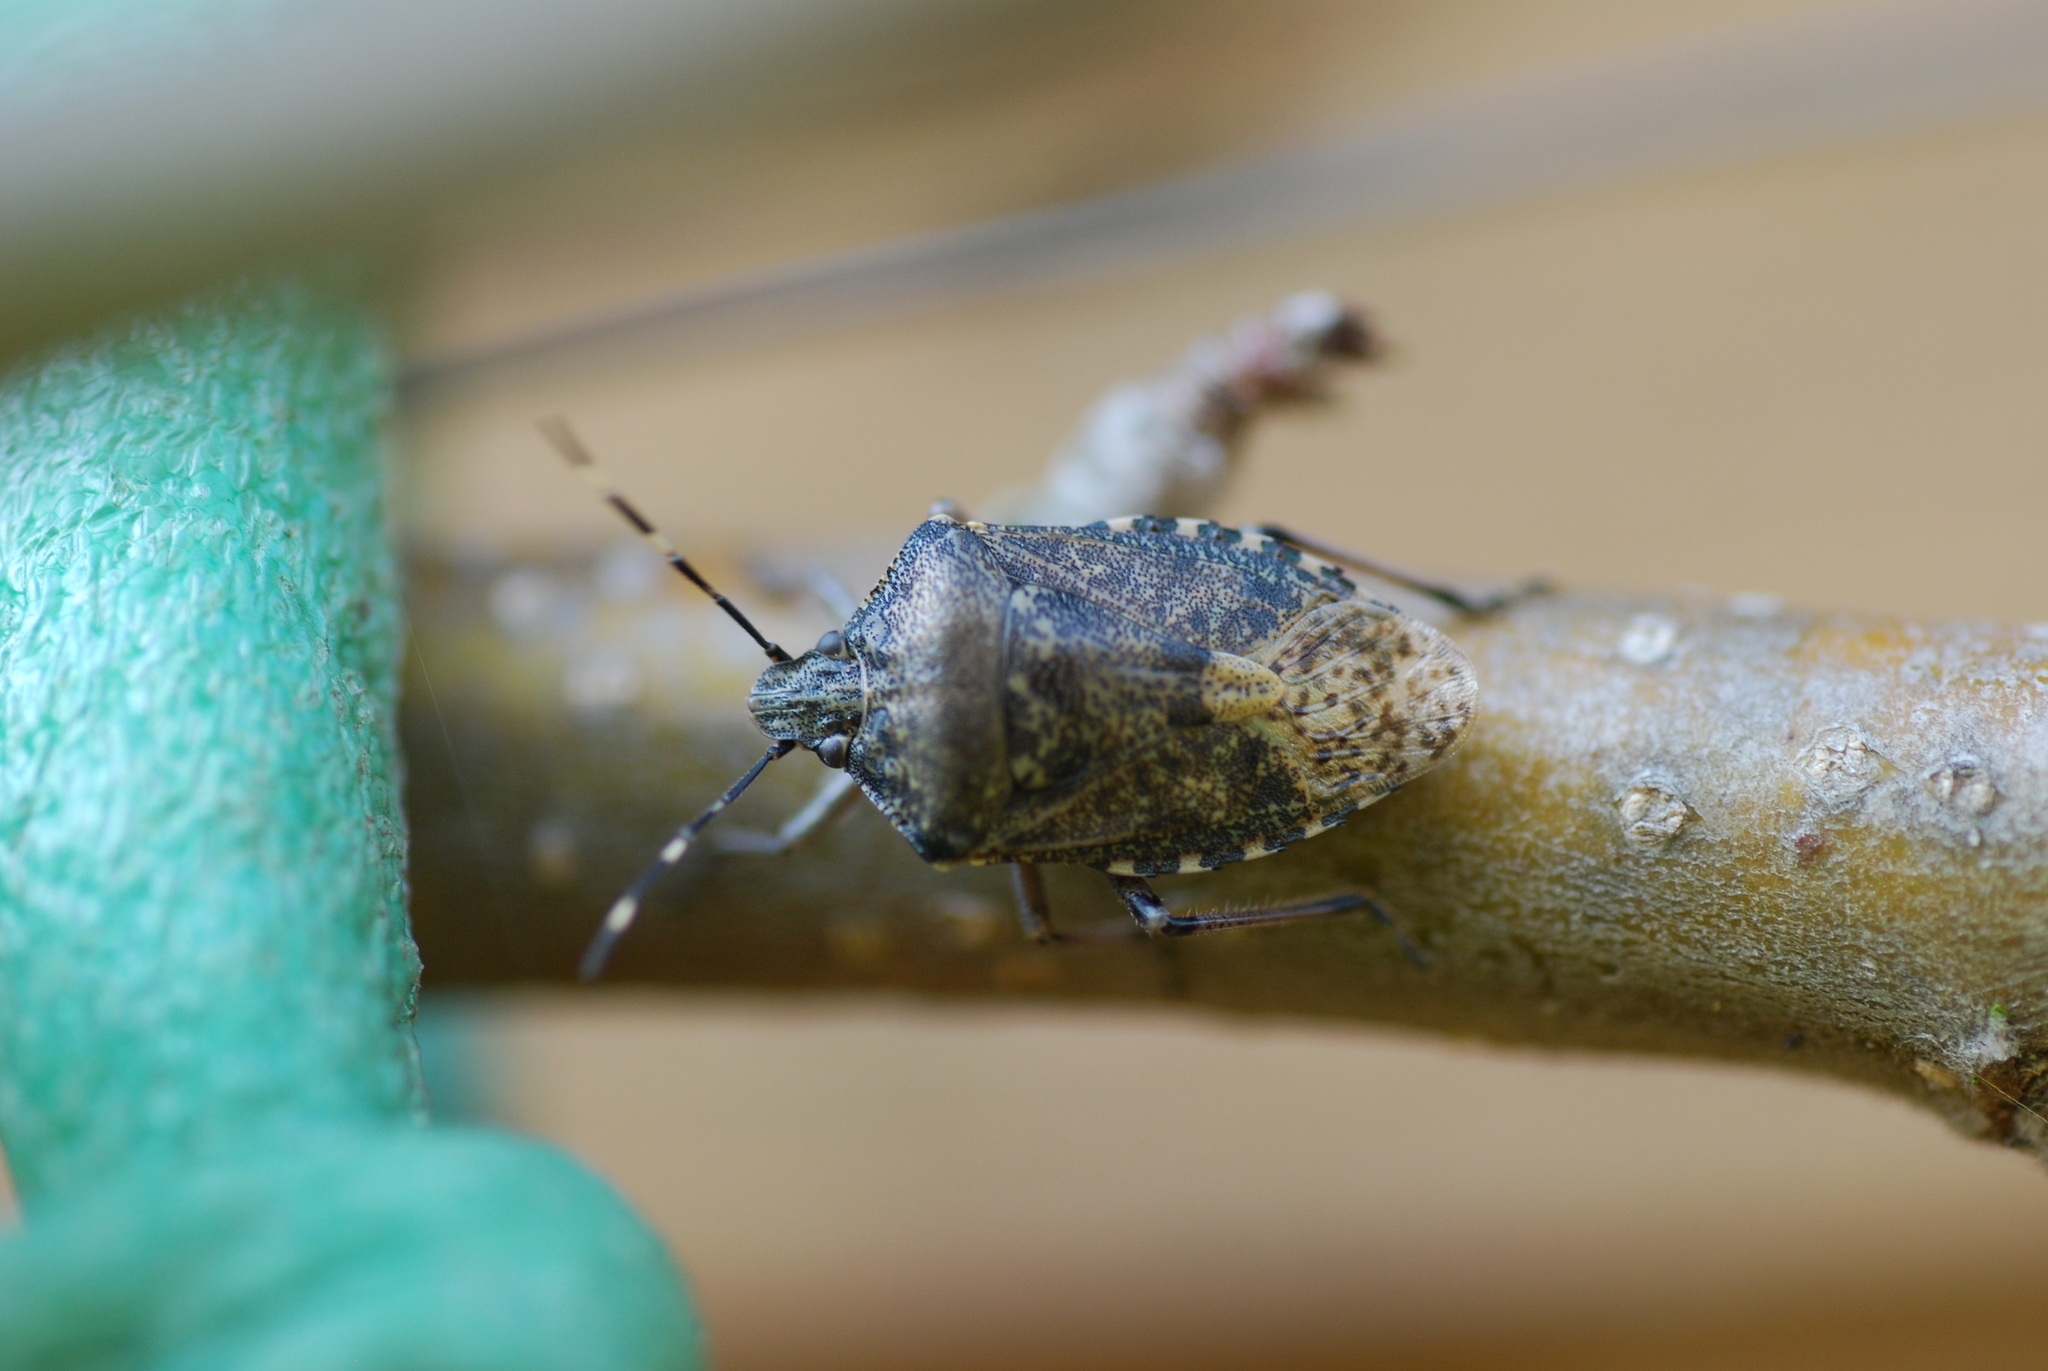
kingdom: Animalia
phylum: Arthropoda
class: Insecta
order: Hemiptera
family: Pentatomidae
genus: Rhaphigaster
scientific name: Rhaphigaster nebulosa
